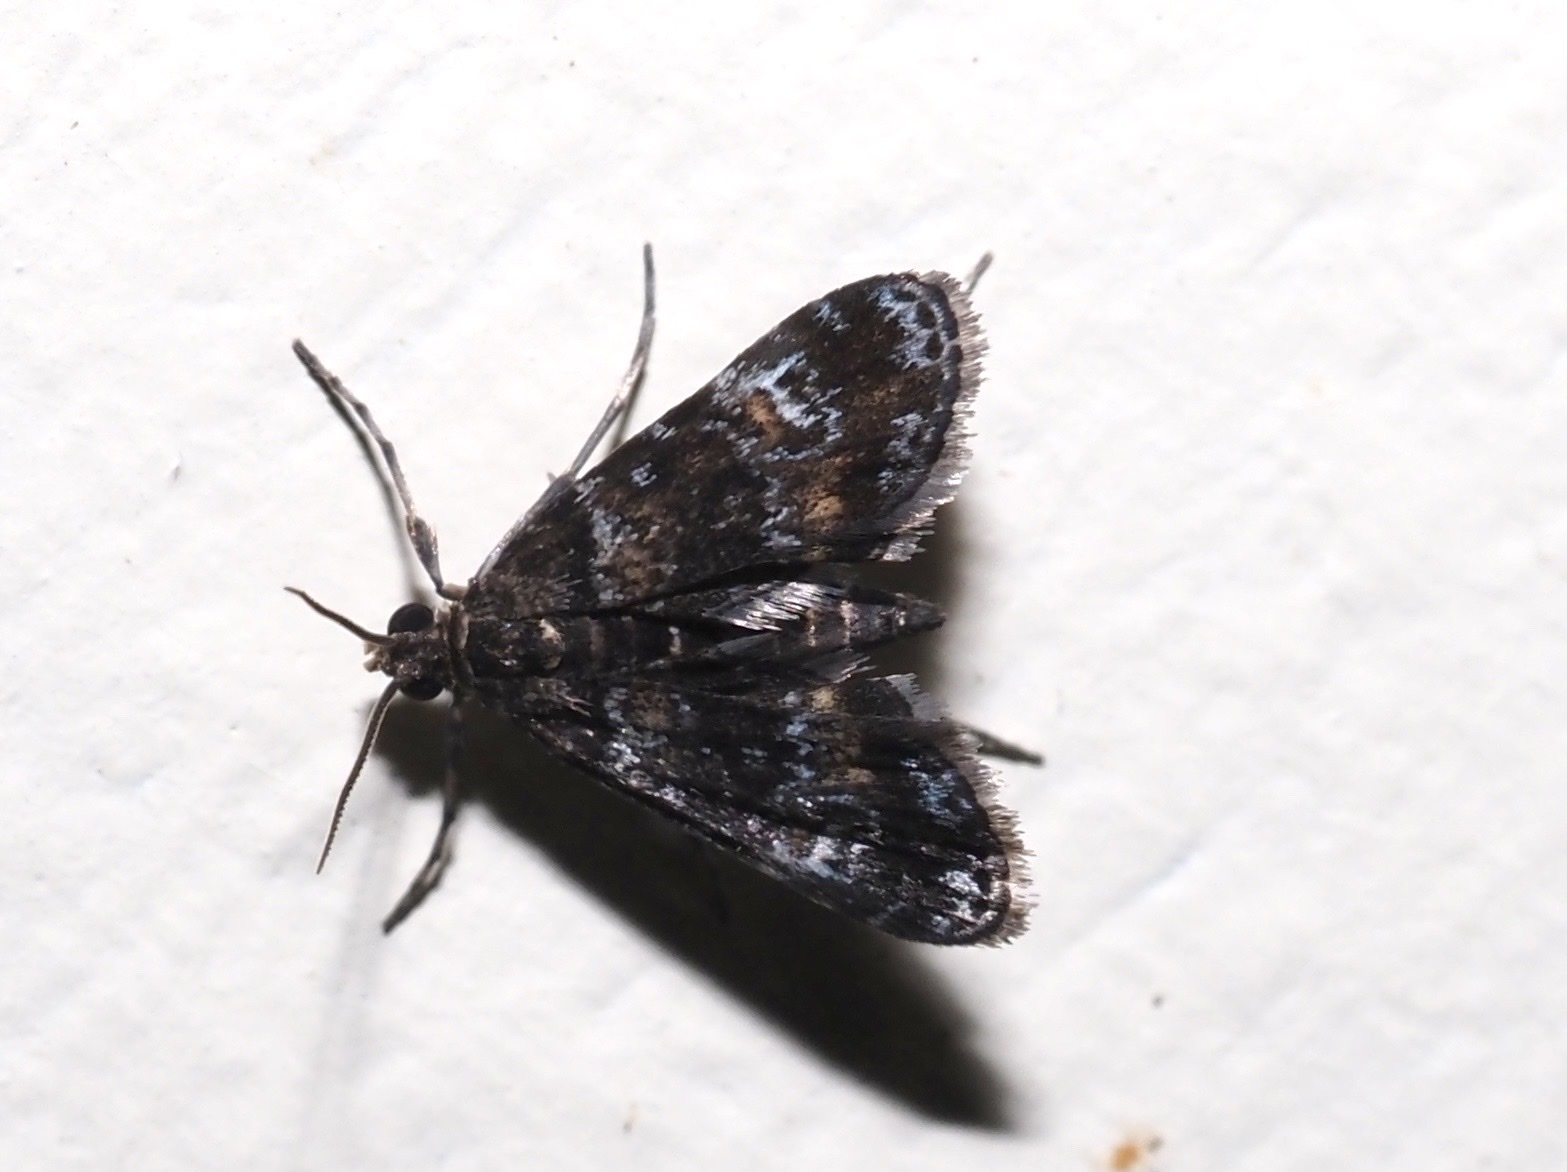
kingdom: Animalia
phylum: Arthropoda
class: Insecta
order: Lepidoptera
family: Crambidae
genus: Elophila
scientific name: Elophila obliteralis
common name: Waterlily leafcutter moth
